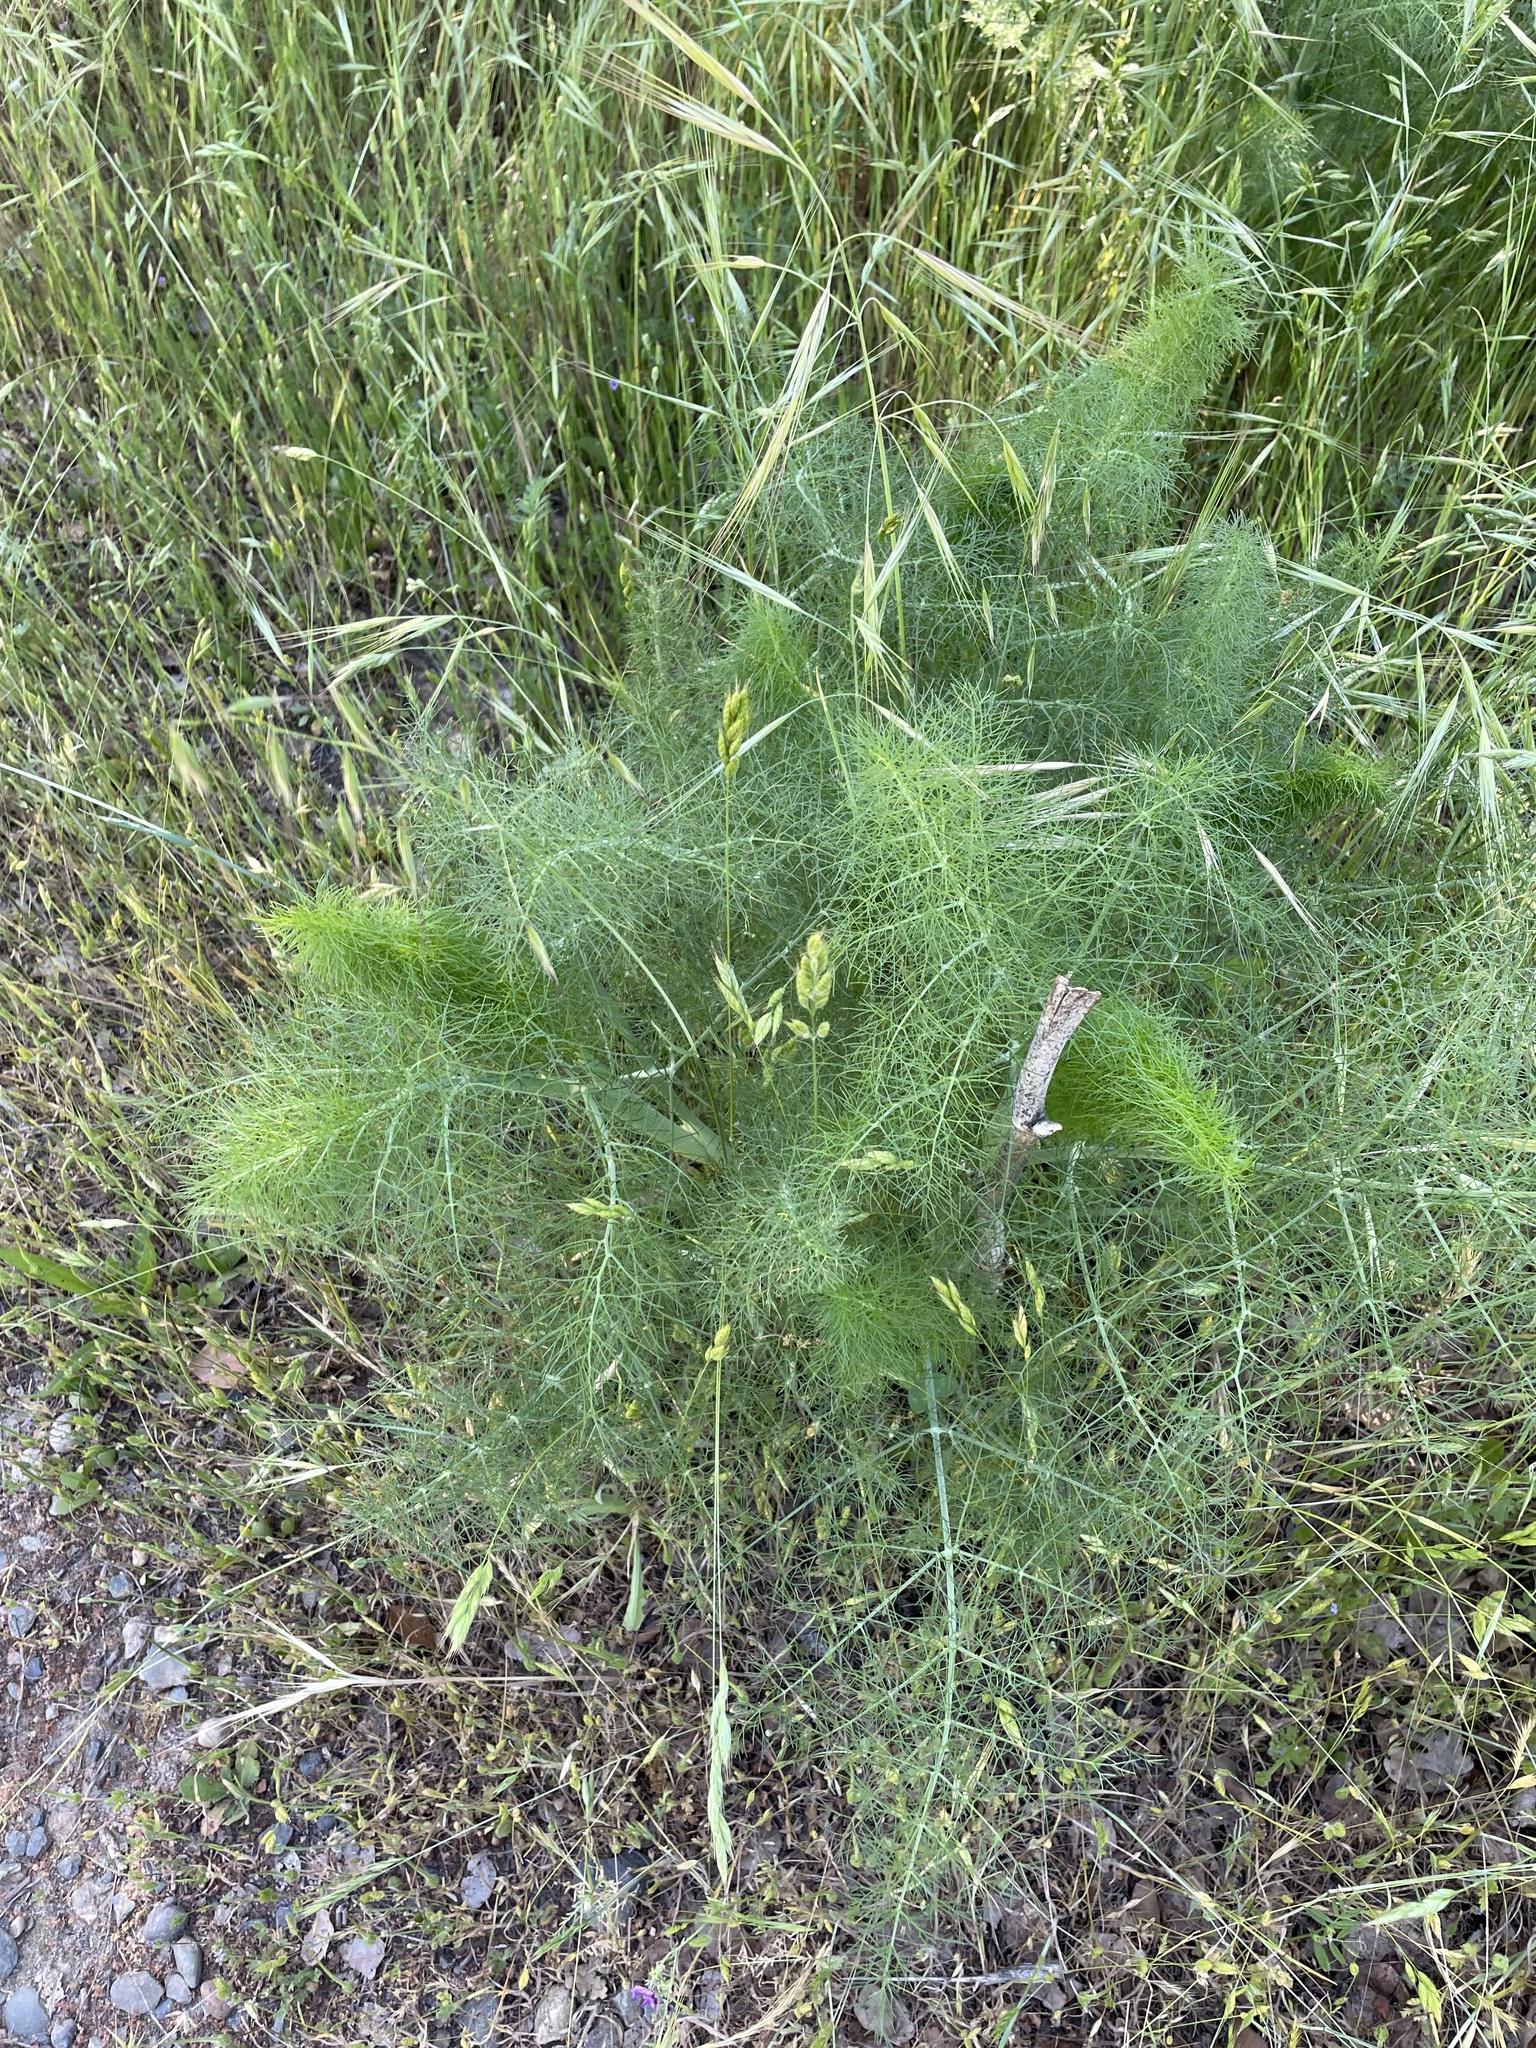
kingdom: Plantae
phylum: Tracheophyta
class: Magnoliopsida
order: Apiales
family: Apiaceae
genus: Foeniculum
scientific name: Foeniculum vulgare
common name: Fennel
